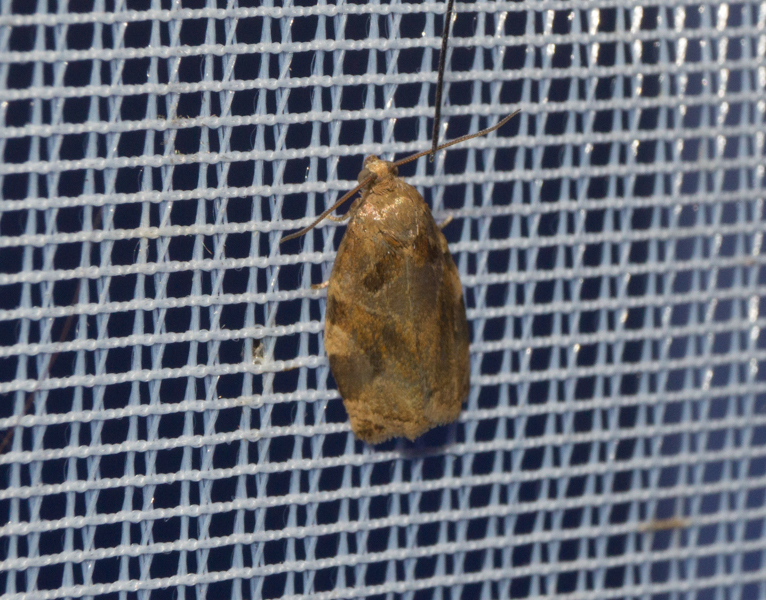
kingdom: Animalia
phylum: Arthropoda
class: Insecta
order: Lepidoptera
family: Tortricidae
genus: Archips
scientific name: Archips xylosteana
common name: Variegated golden tortrix
